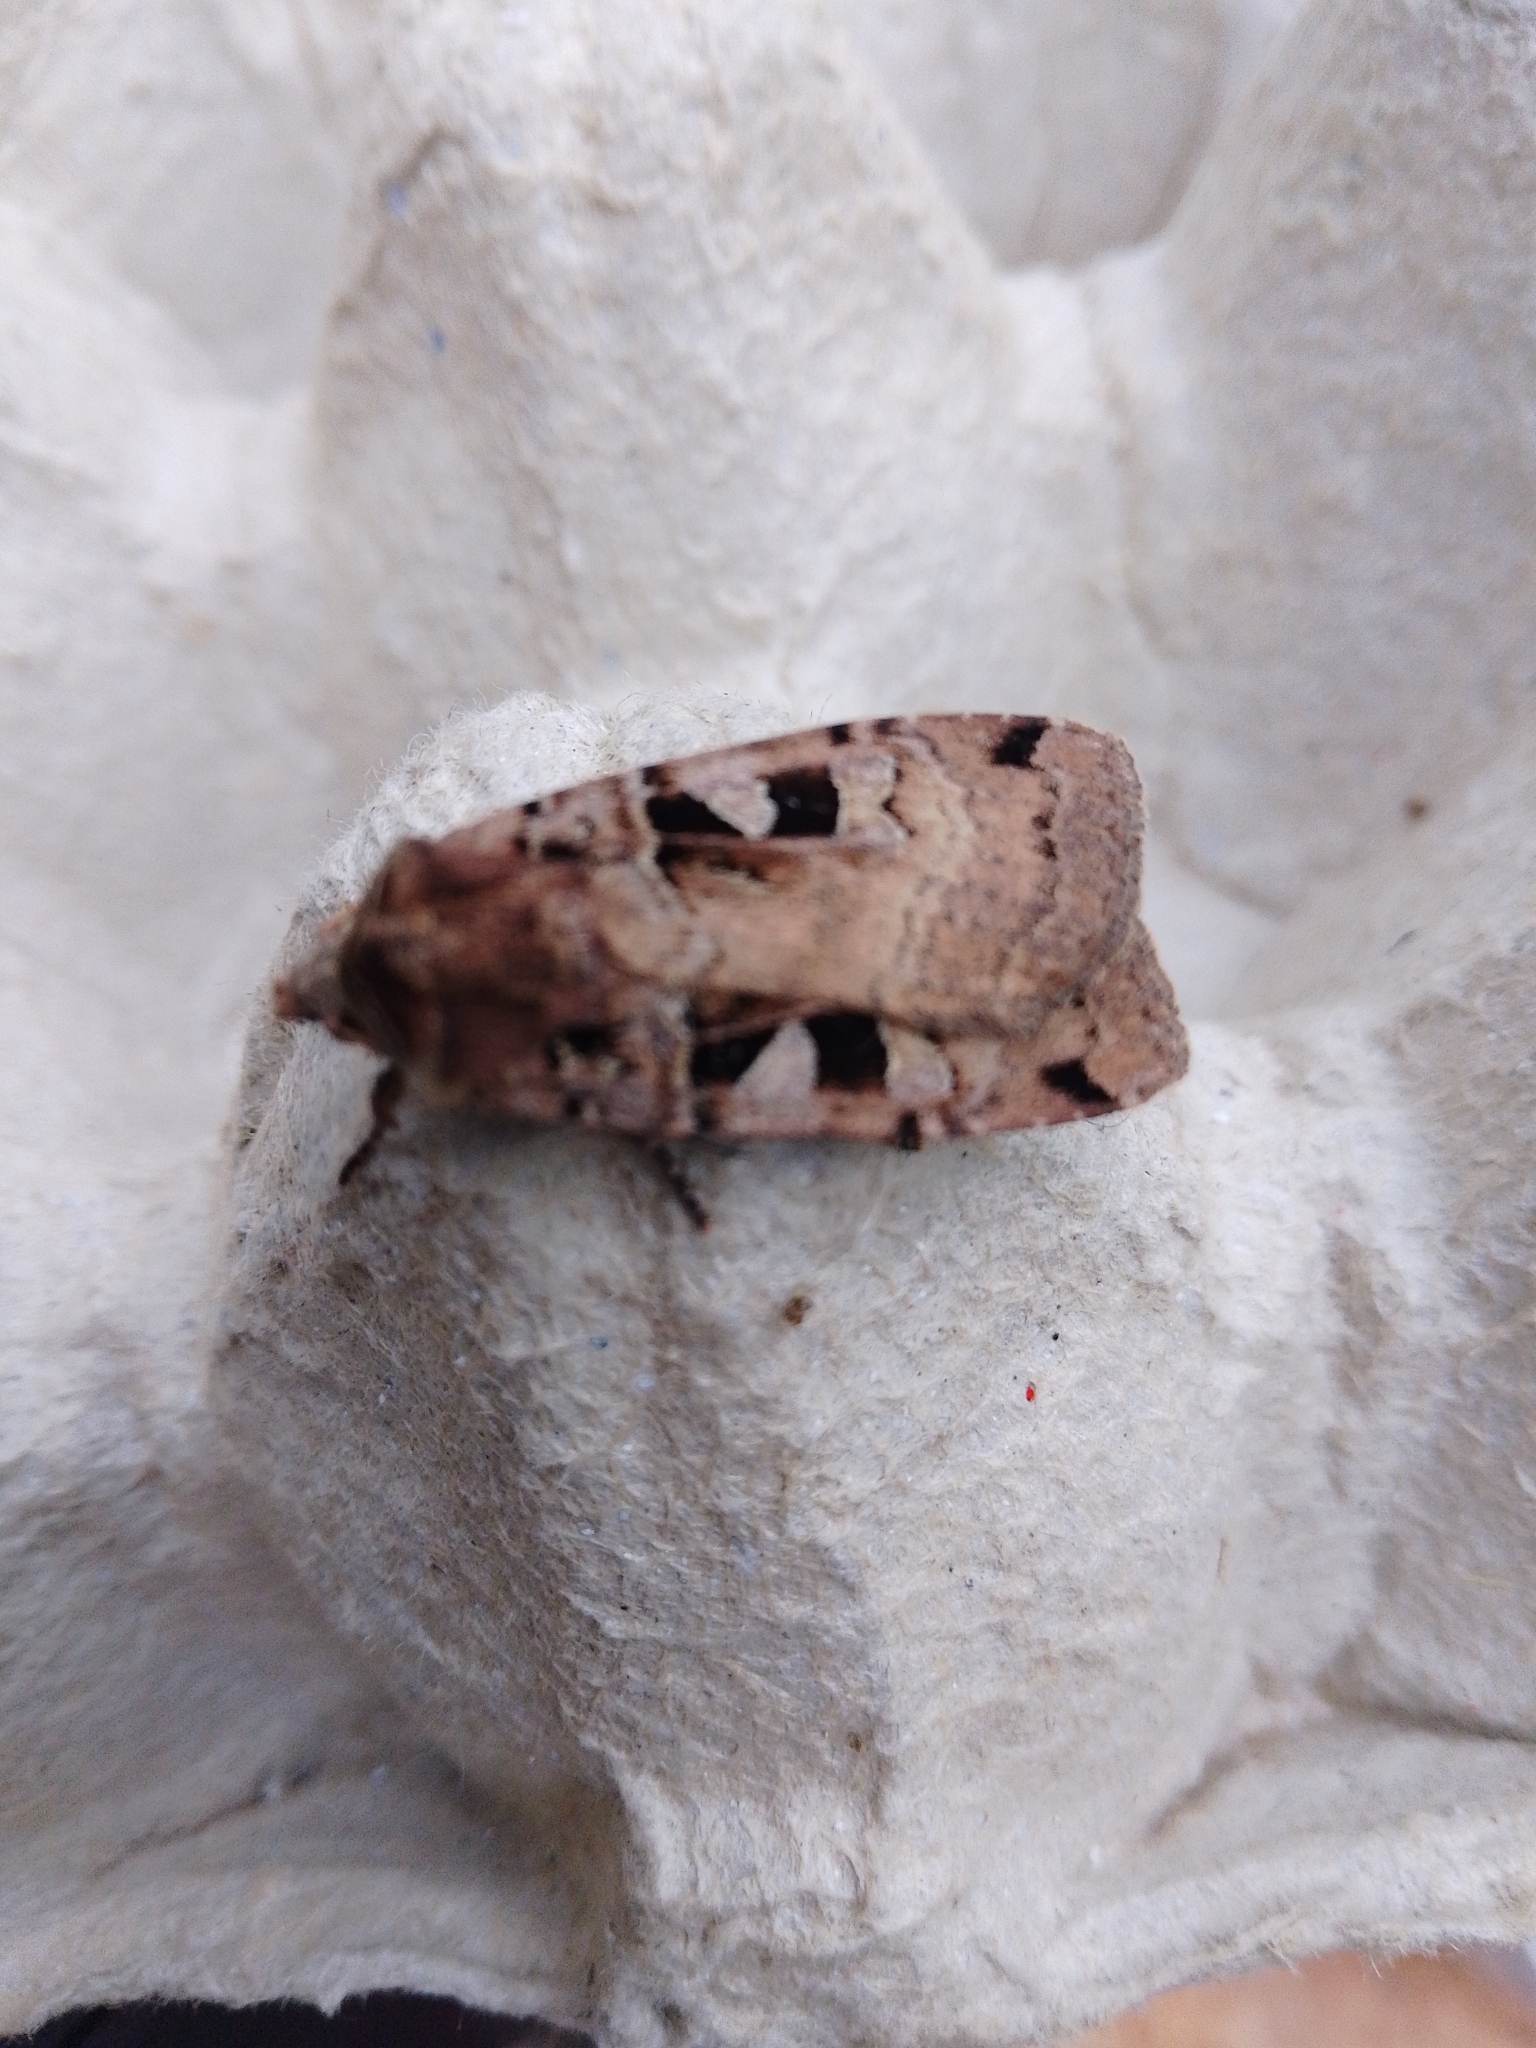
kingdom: Animalia
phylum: Arthropoda
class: Insecta
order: Lepidoptera
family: Noctuidae
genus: Xestia
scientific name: Xestia triangulum
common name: Double square-spot
